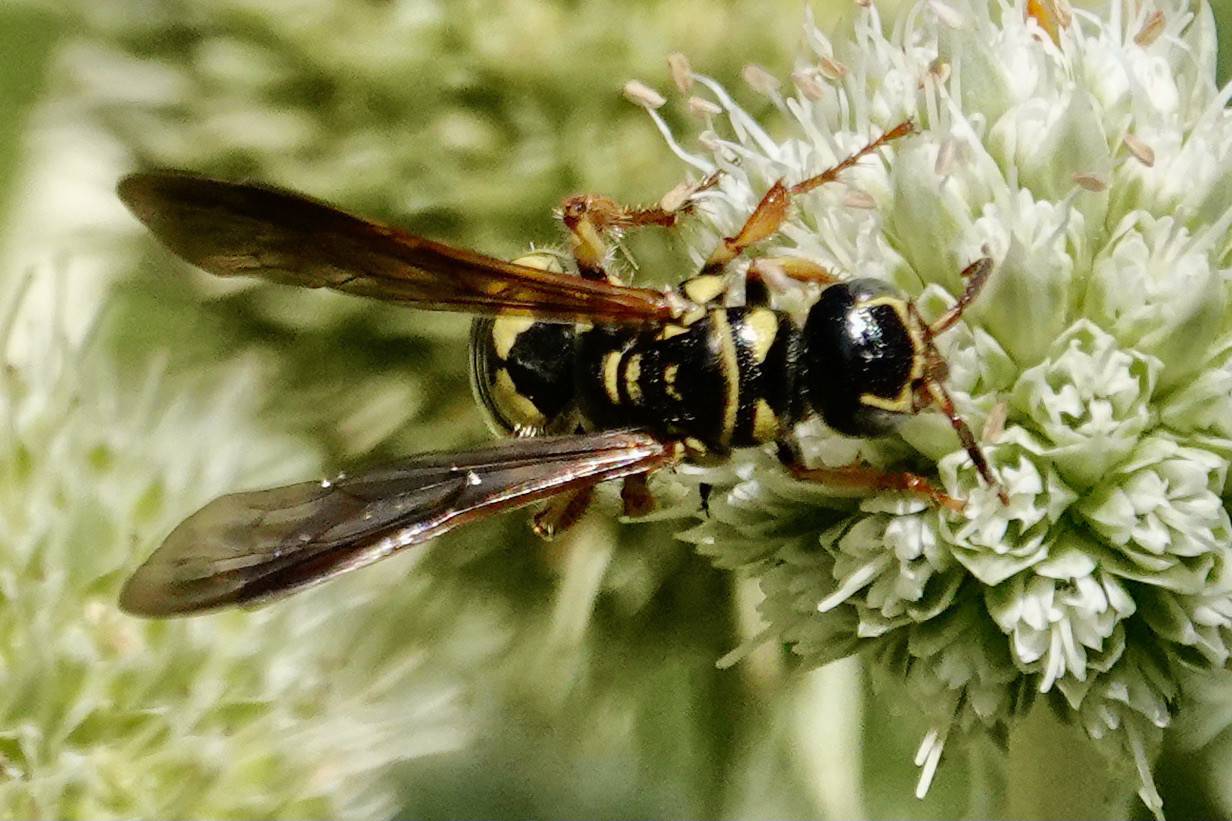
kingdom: Animalia
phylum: Arthropoda
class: Insecta
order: Hymenoptera
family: Tiphiidae
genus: Myzinum
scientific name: Myzinum quinquecinctum
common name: Five-banded thynnid wasp
